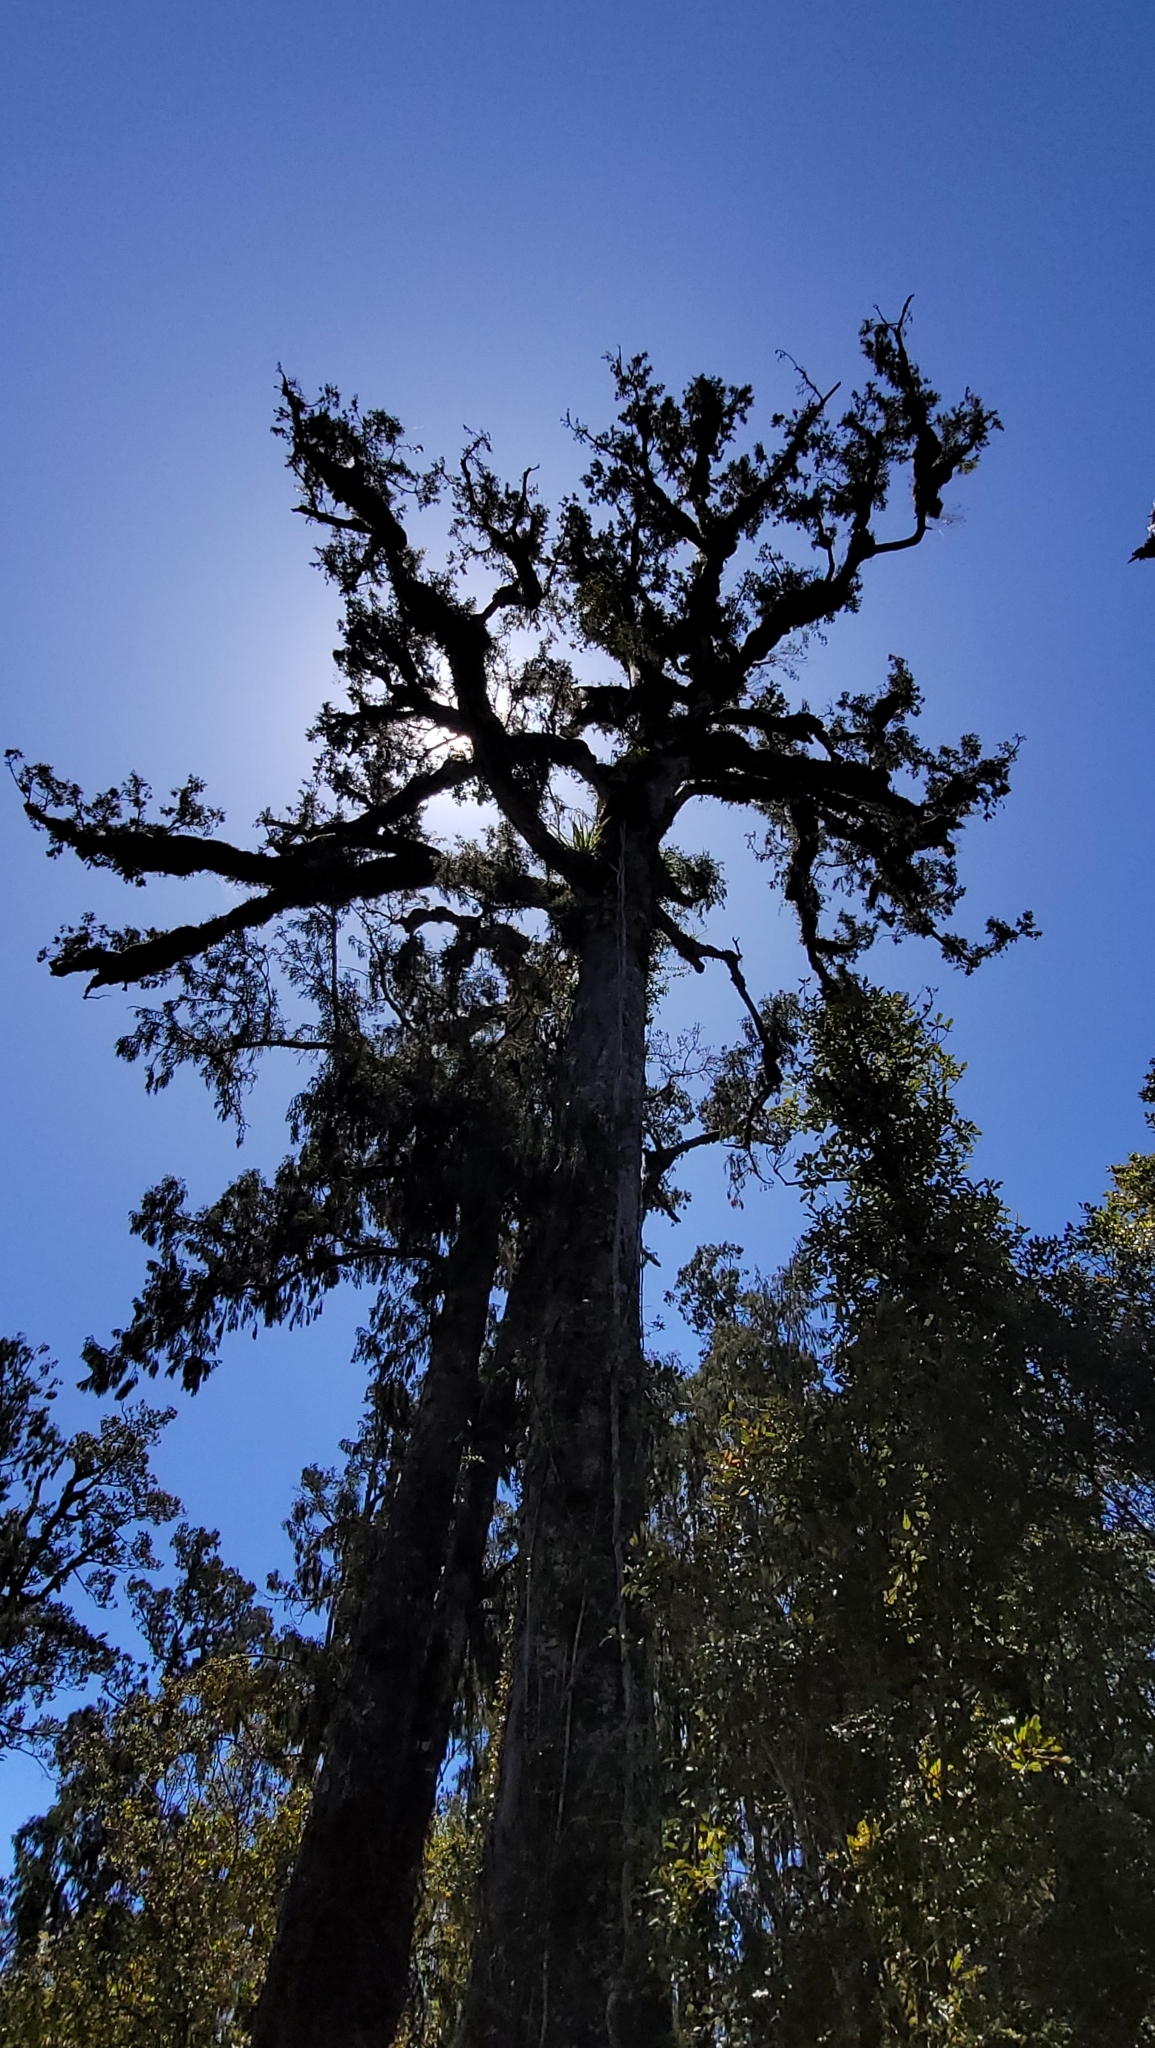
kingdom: Plantae
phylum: Tracheophyta
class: Pinopsida
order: Pinales
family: Podocarpaceae
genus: Dacrydium
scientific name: Dacrydium cupressinum
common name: Red pine
